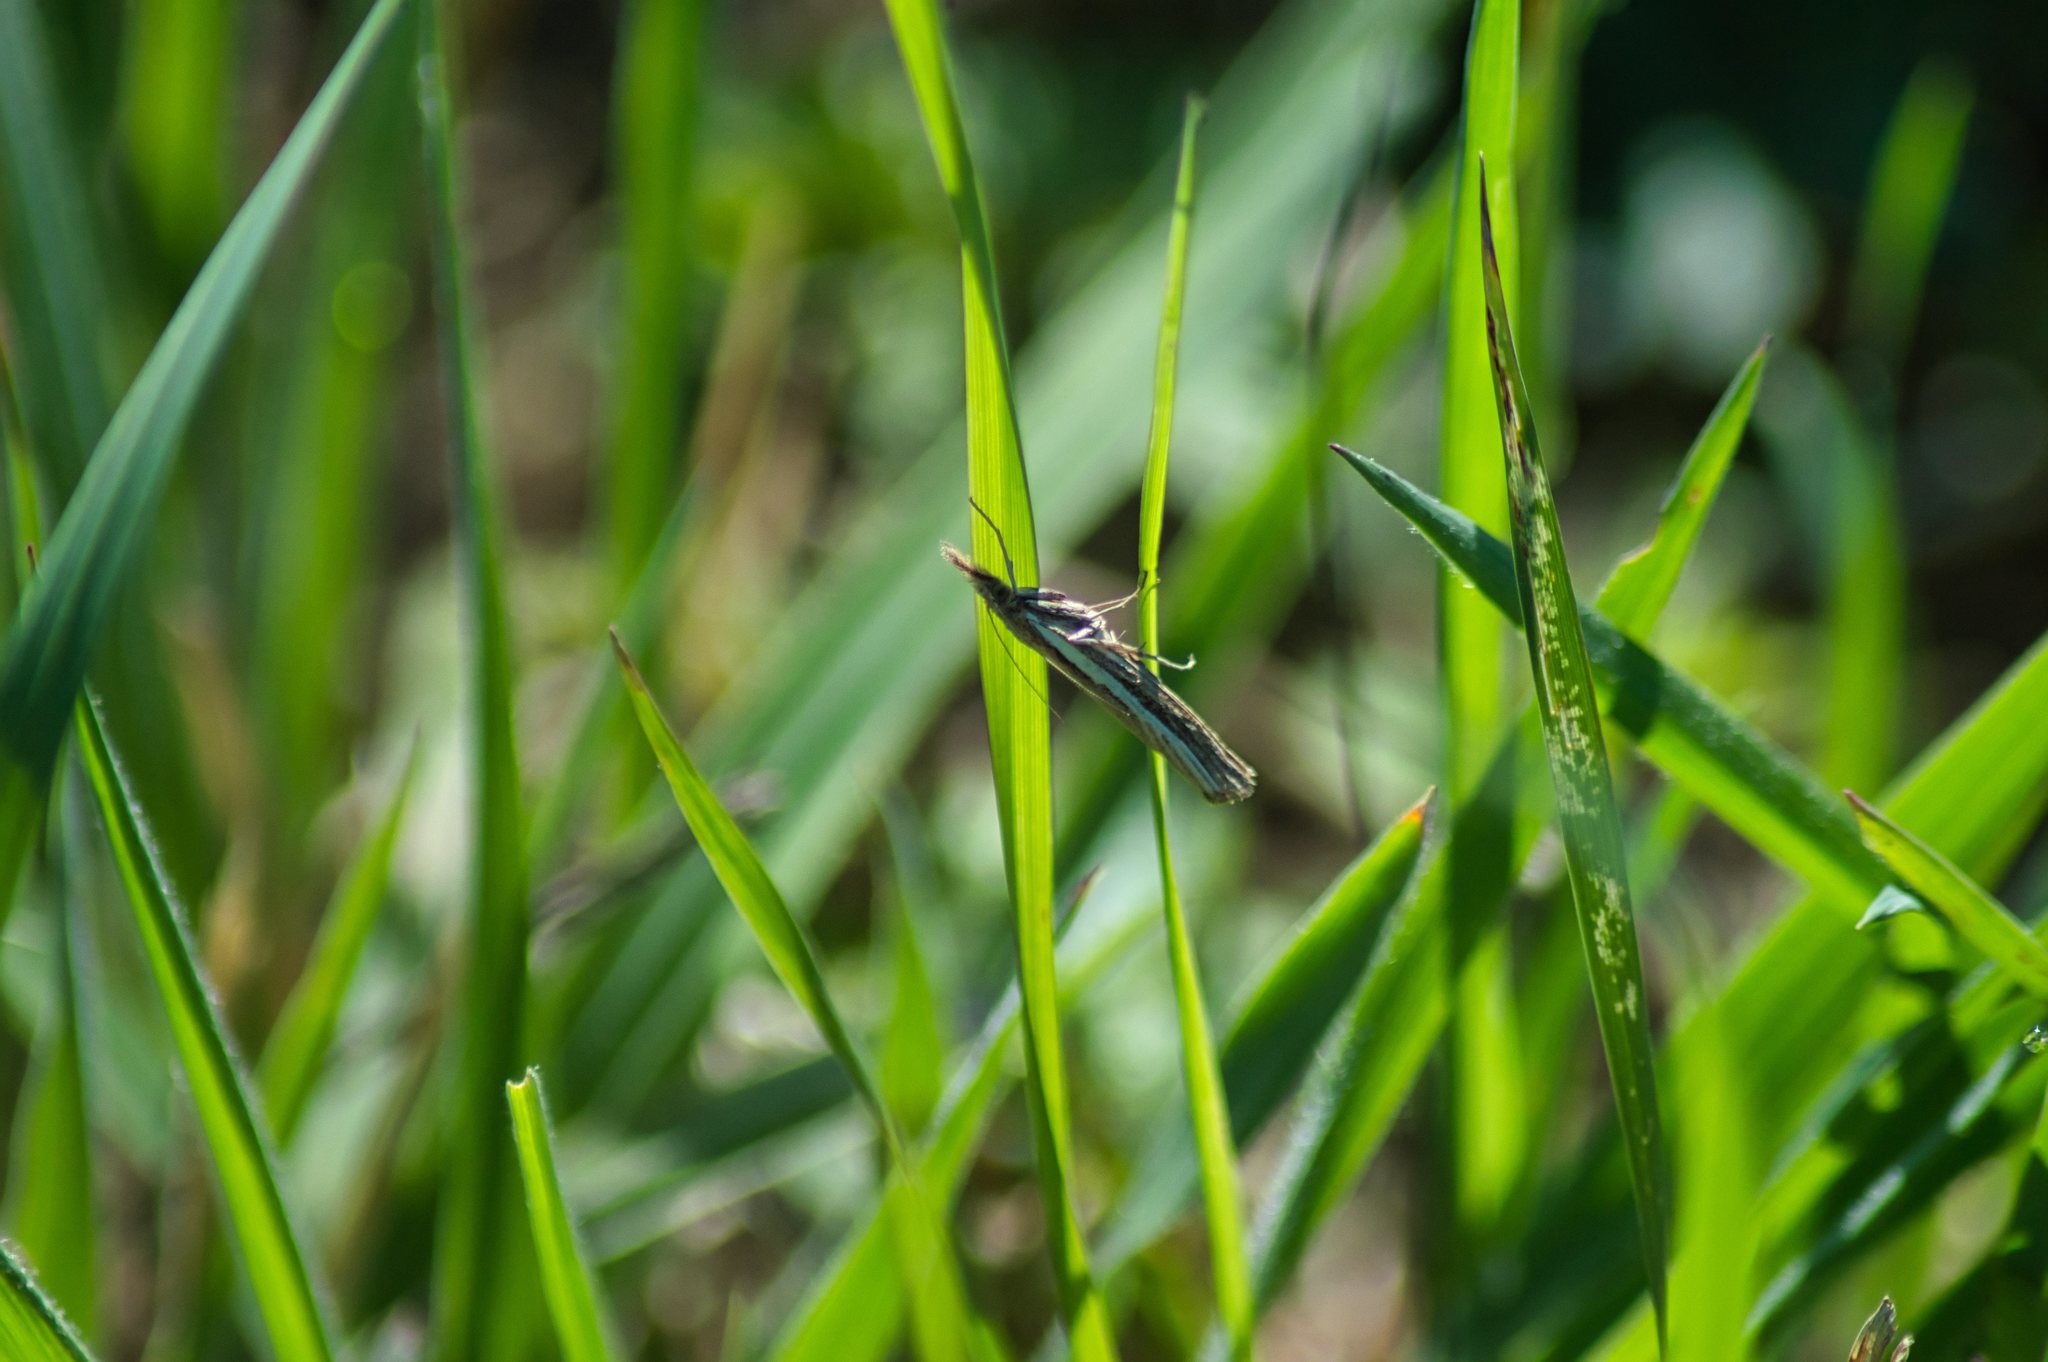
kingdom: Animalia
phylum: Arthropoda
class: Insecta
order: Lepidoptera
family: Crambidae
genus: Agriphila
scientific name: Agriphila tristellus
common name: Common grass-veneer
